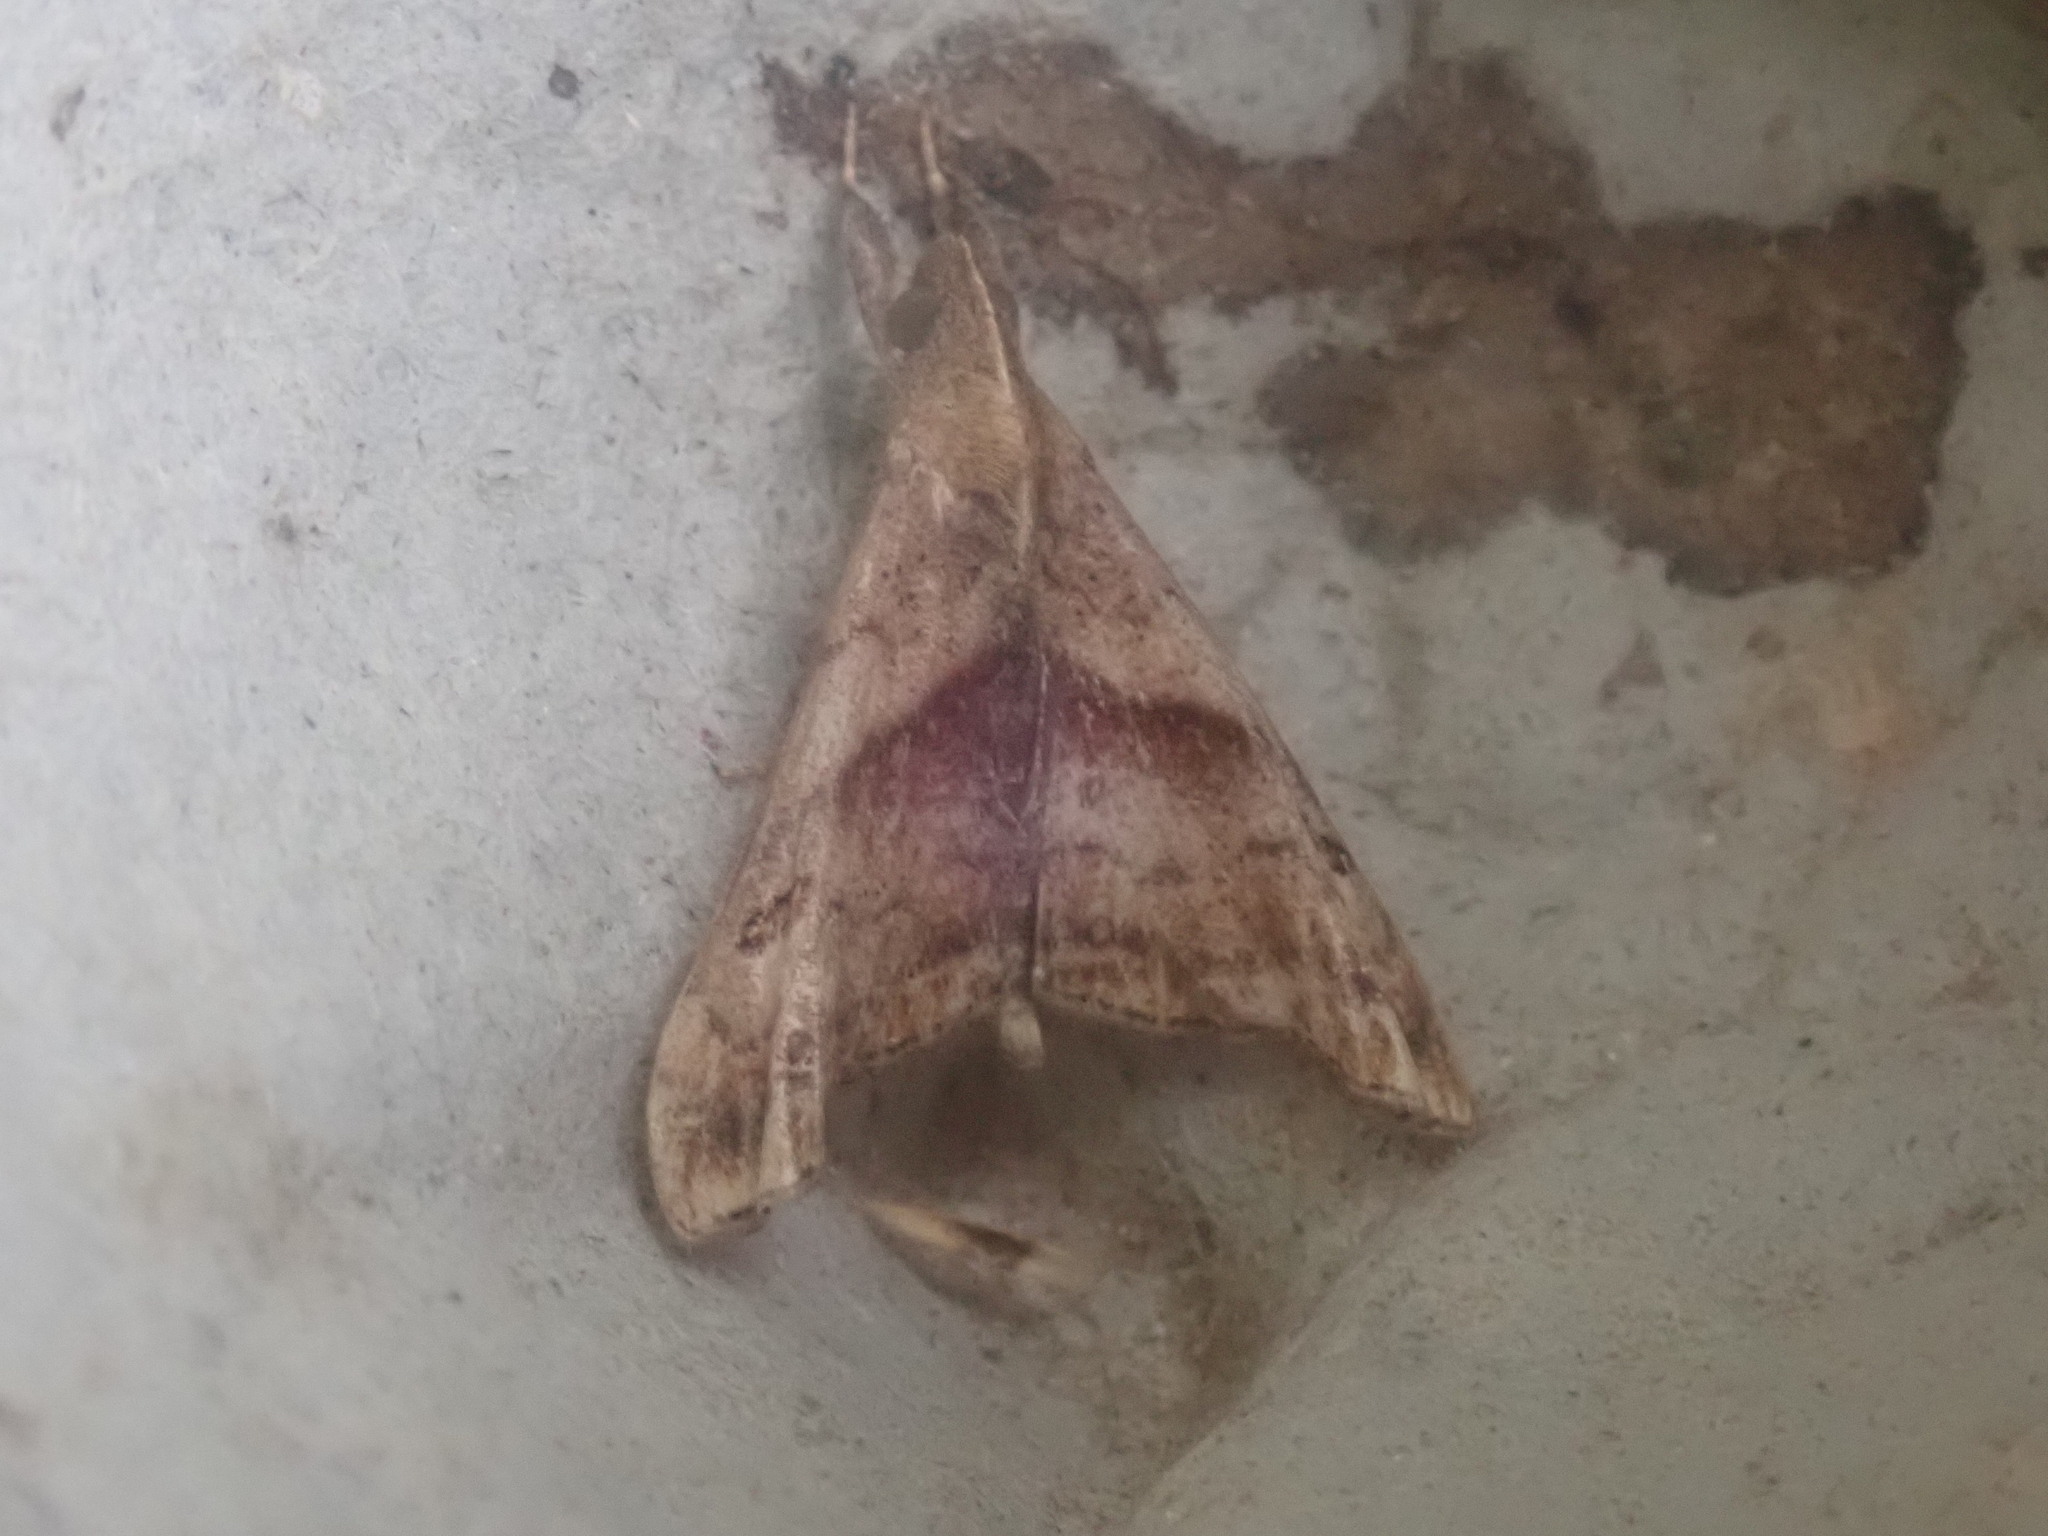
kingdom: Animalia
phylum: Arthropoda
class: Insecta
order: Lepidoptera
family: Erebidae
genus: Palthis
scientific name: Palthis angulalis
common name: Dark-spotted palthis moth
